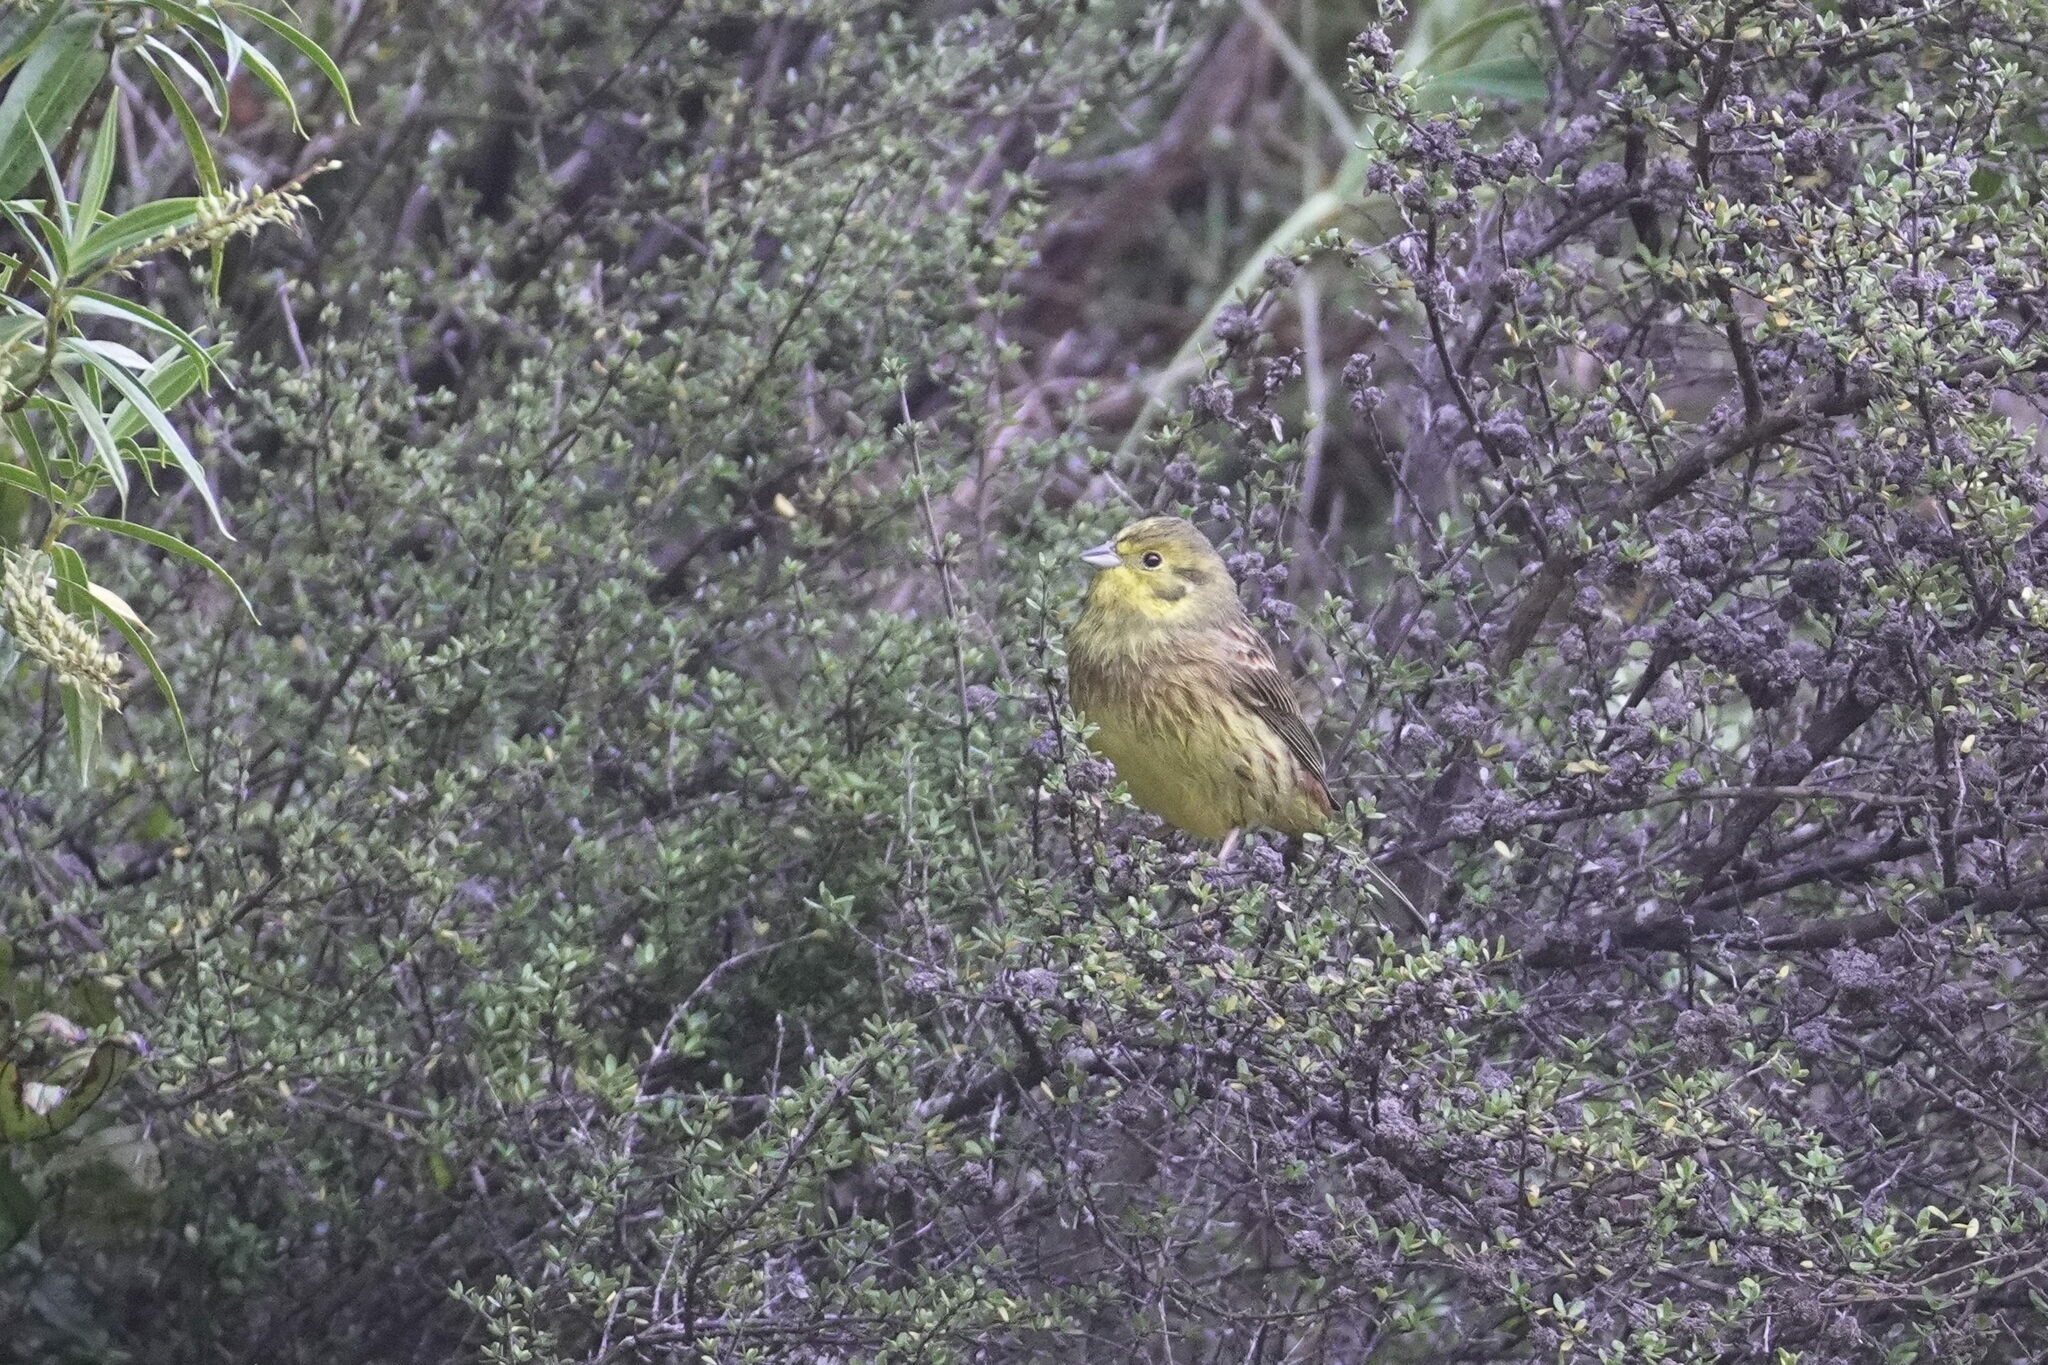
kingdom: Animalia
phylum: Chordata
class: Aves
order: Passeriformes
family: Emberizidae
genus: Emberiza
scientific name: Emberiza citrinella
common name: Yellowhammer
